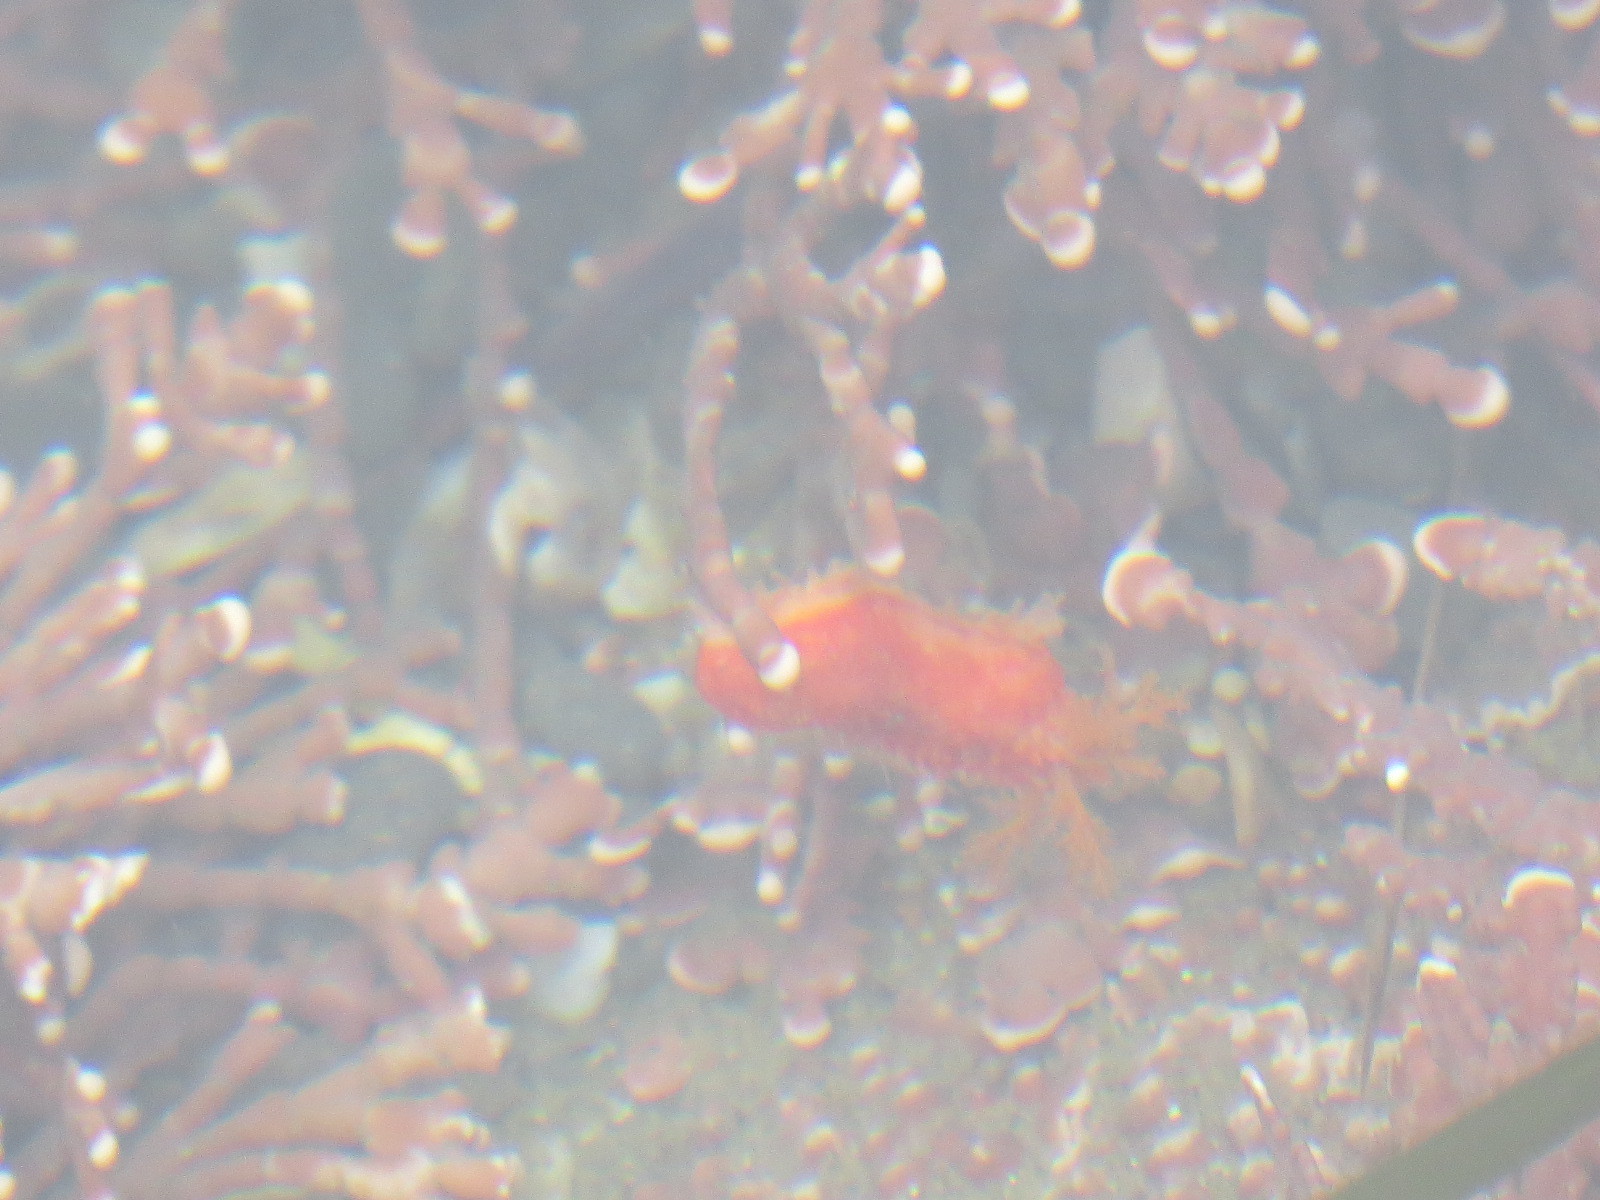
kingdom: Animalia
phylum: Echinodermata
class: Holothuroidea
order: Dendrochirotida
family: Psolidae
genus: Lissothuria
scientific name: Lissothuria nutriens
